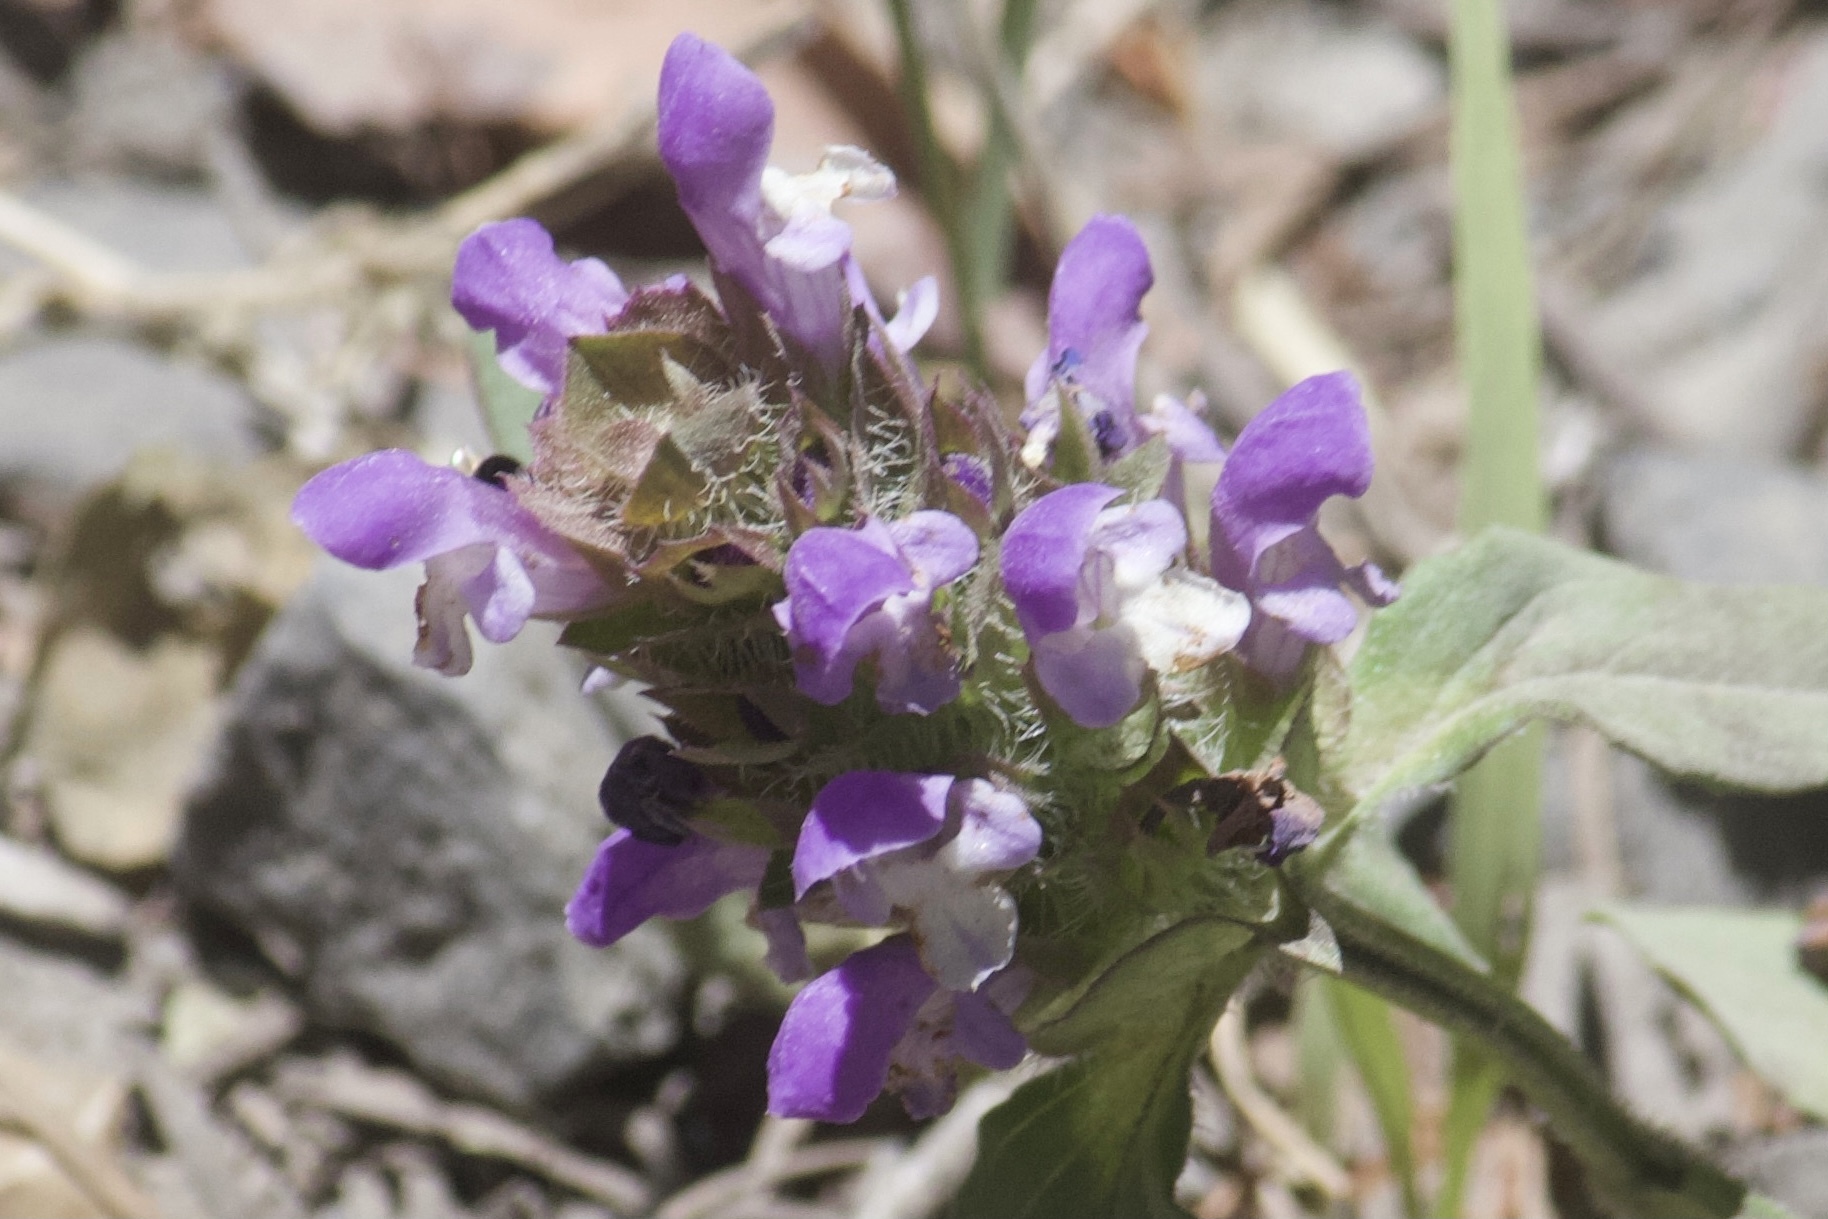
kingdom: Plantae
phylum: Tracheophyta
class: Magnoliopsida
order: Lamiales
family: Lamiaceae
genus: Prunella
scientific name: Prunella vulgaris
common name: Heal-all
